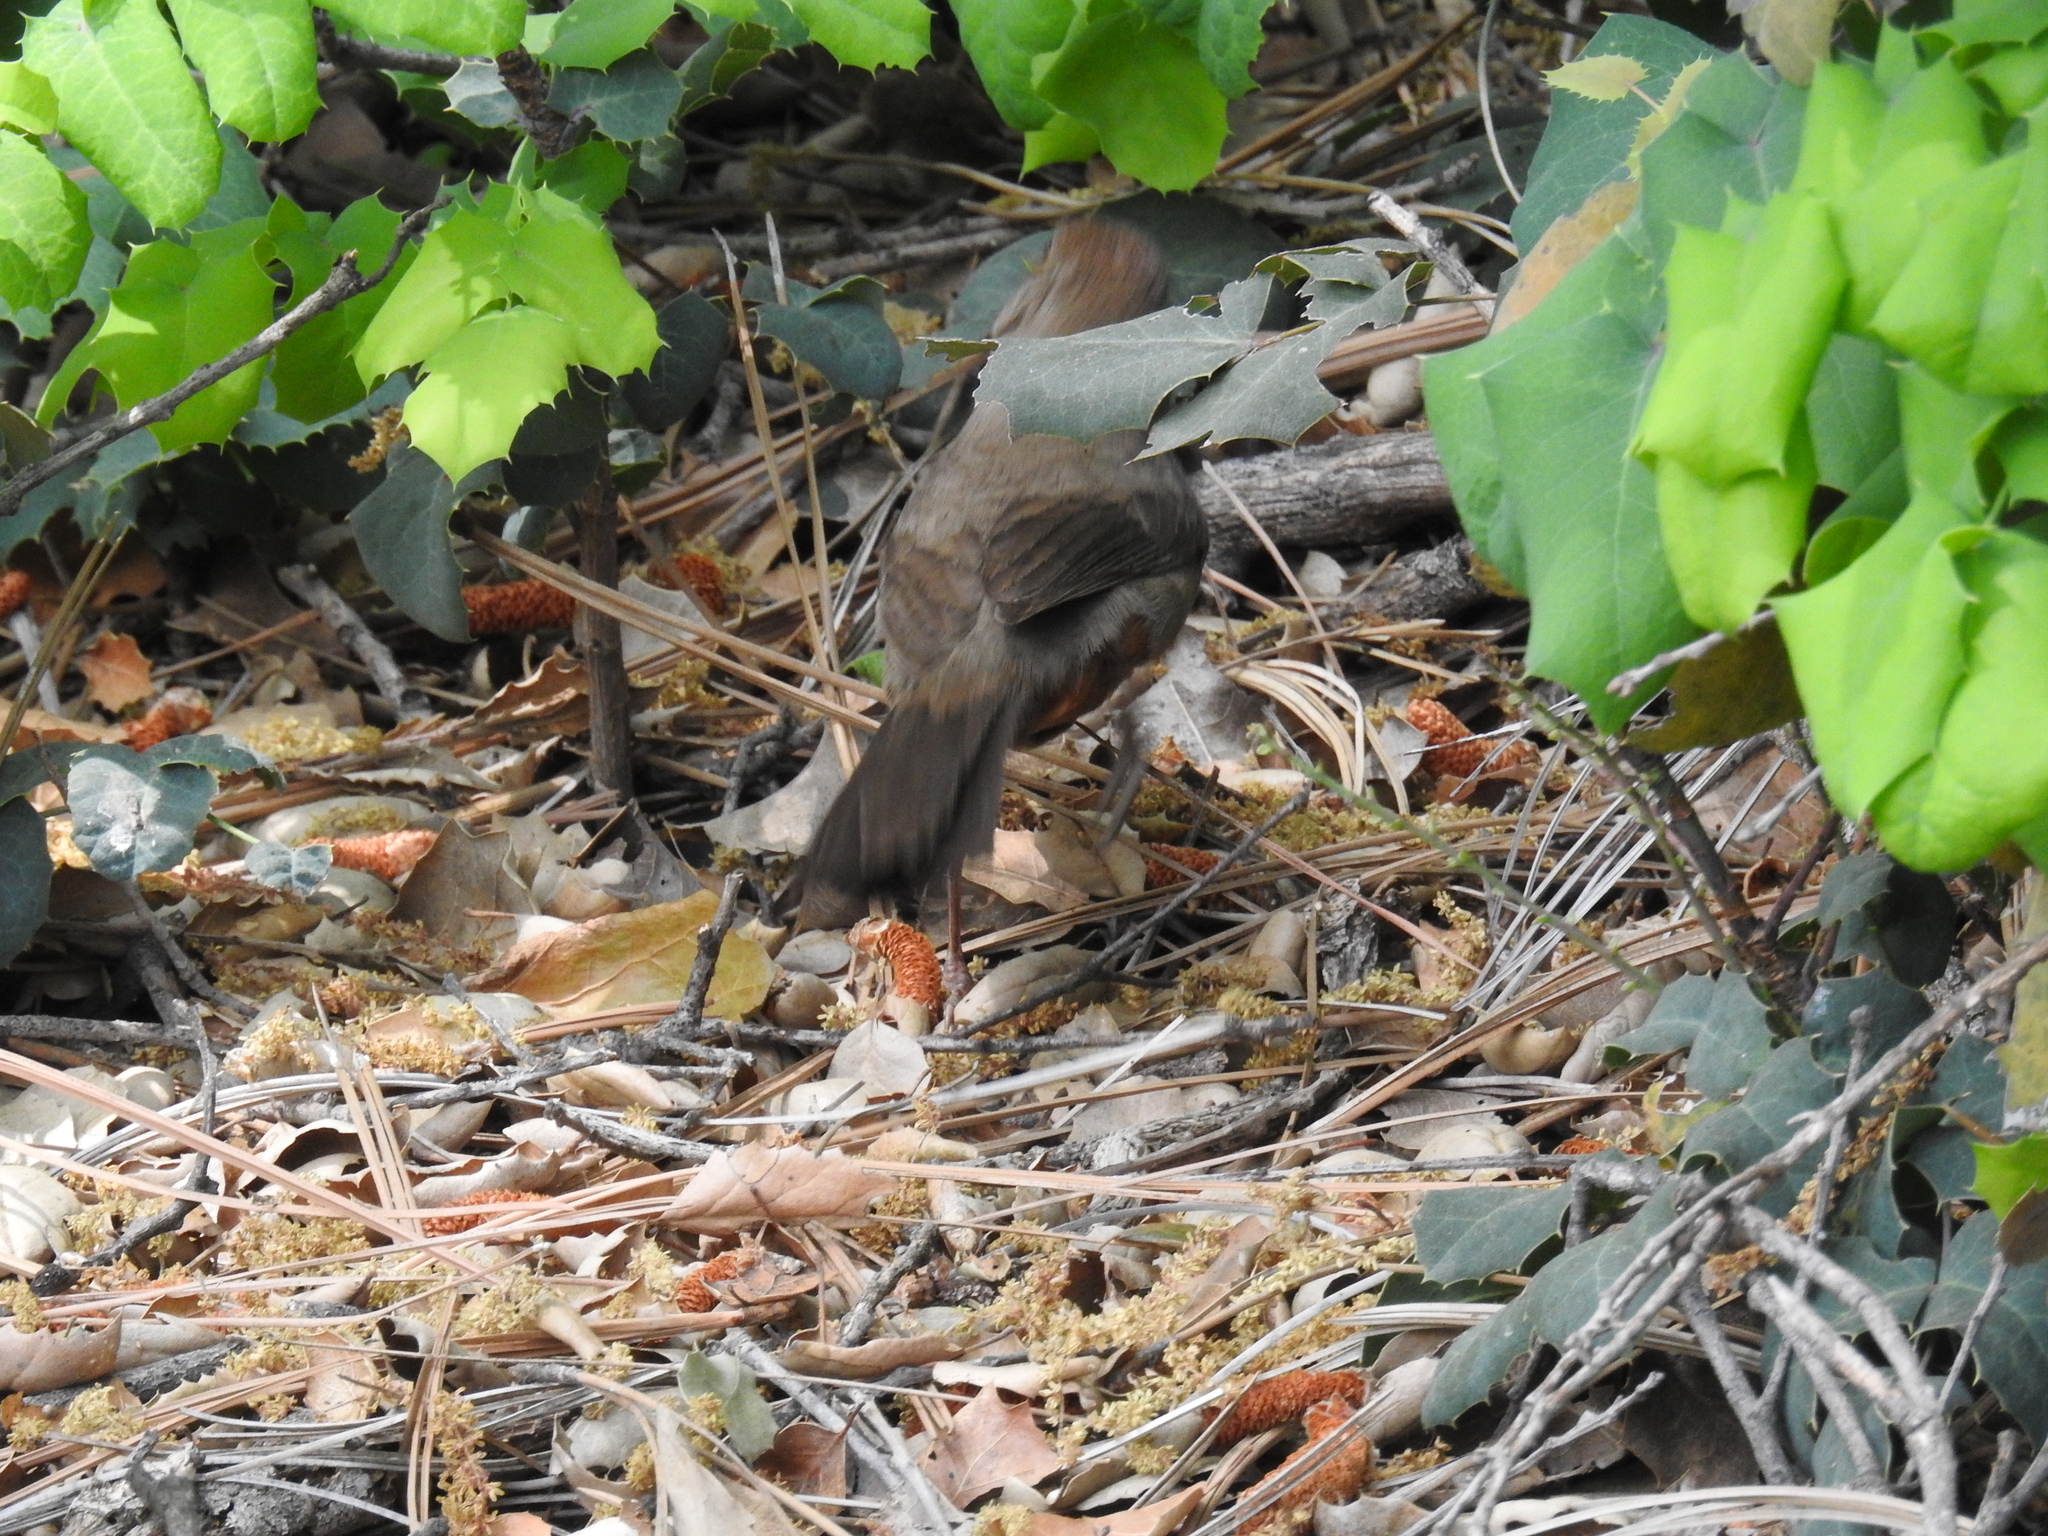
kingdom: Animalia
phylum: Chordata
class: Aves
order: Passeriformes
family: Passerellidae
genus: Melozone
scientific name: Melozone crissalis
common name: California towhee
